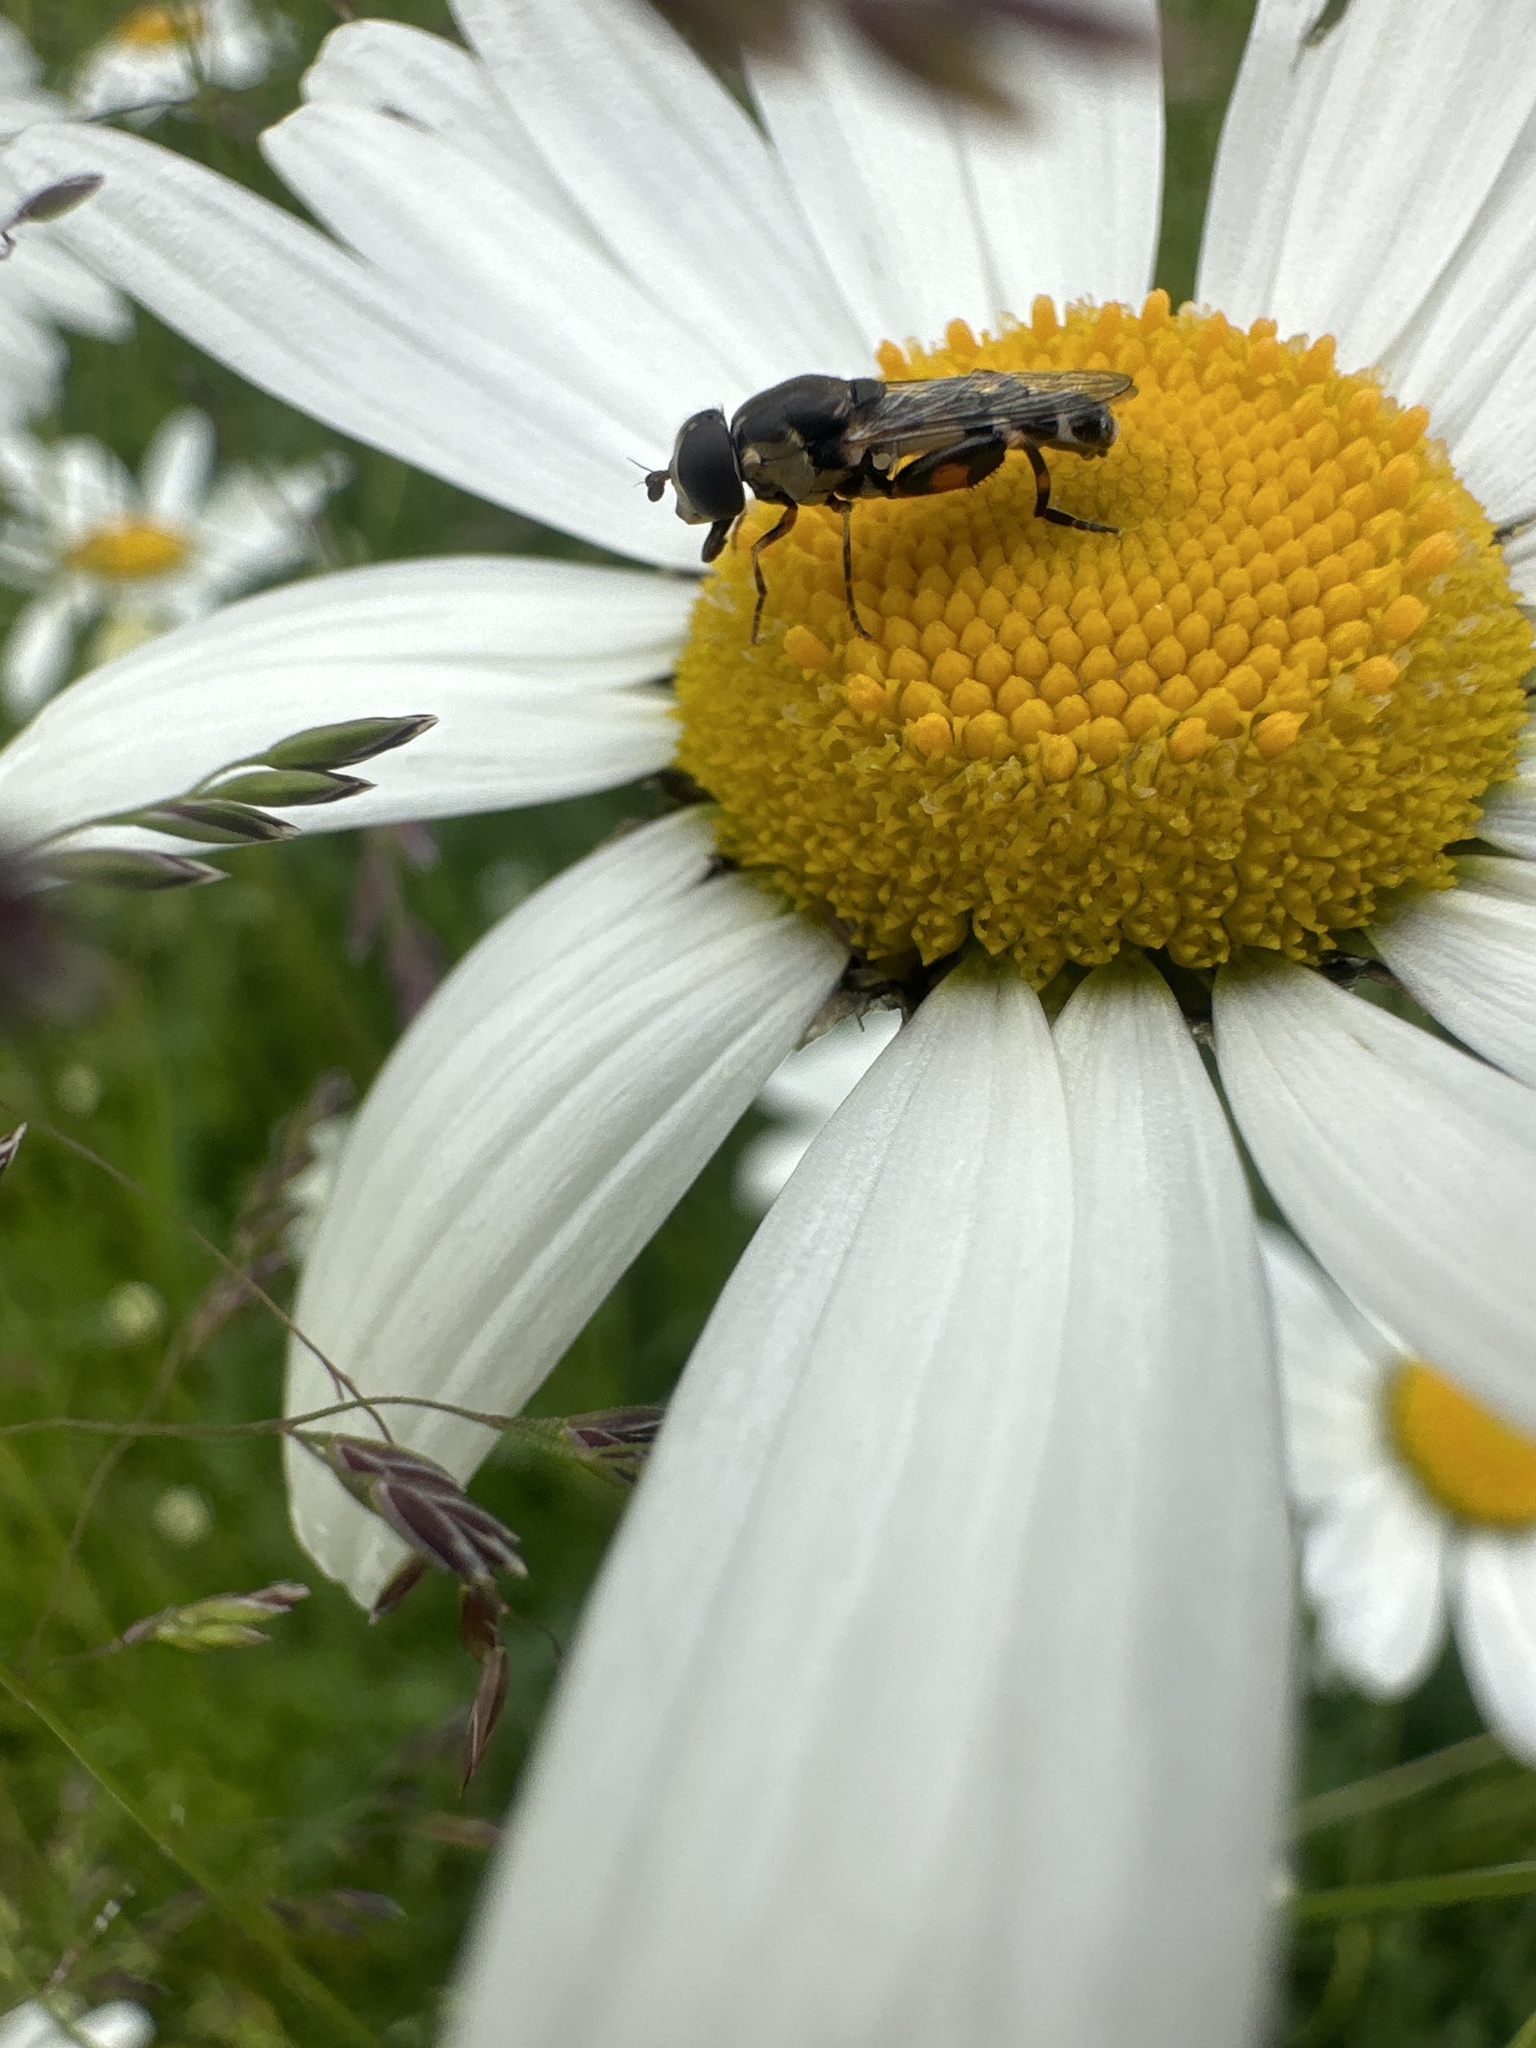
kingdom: Animalia
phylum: Arthropoda
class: Insecta
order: Diptera
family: Syrphidae
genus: Syritta
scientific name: Syritta pipiens
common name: Hover fly
